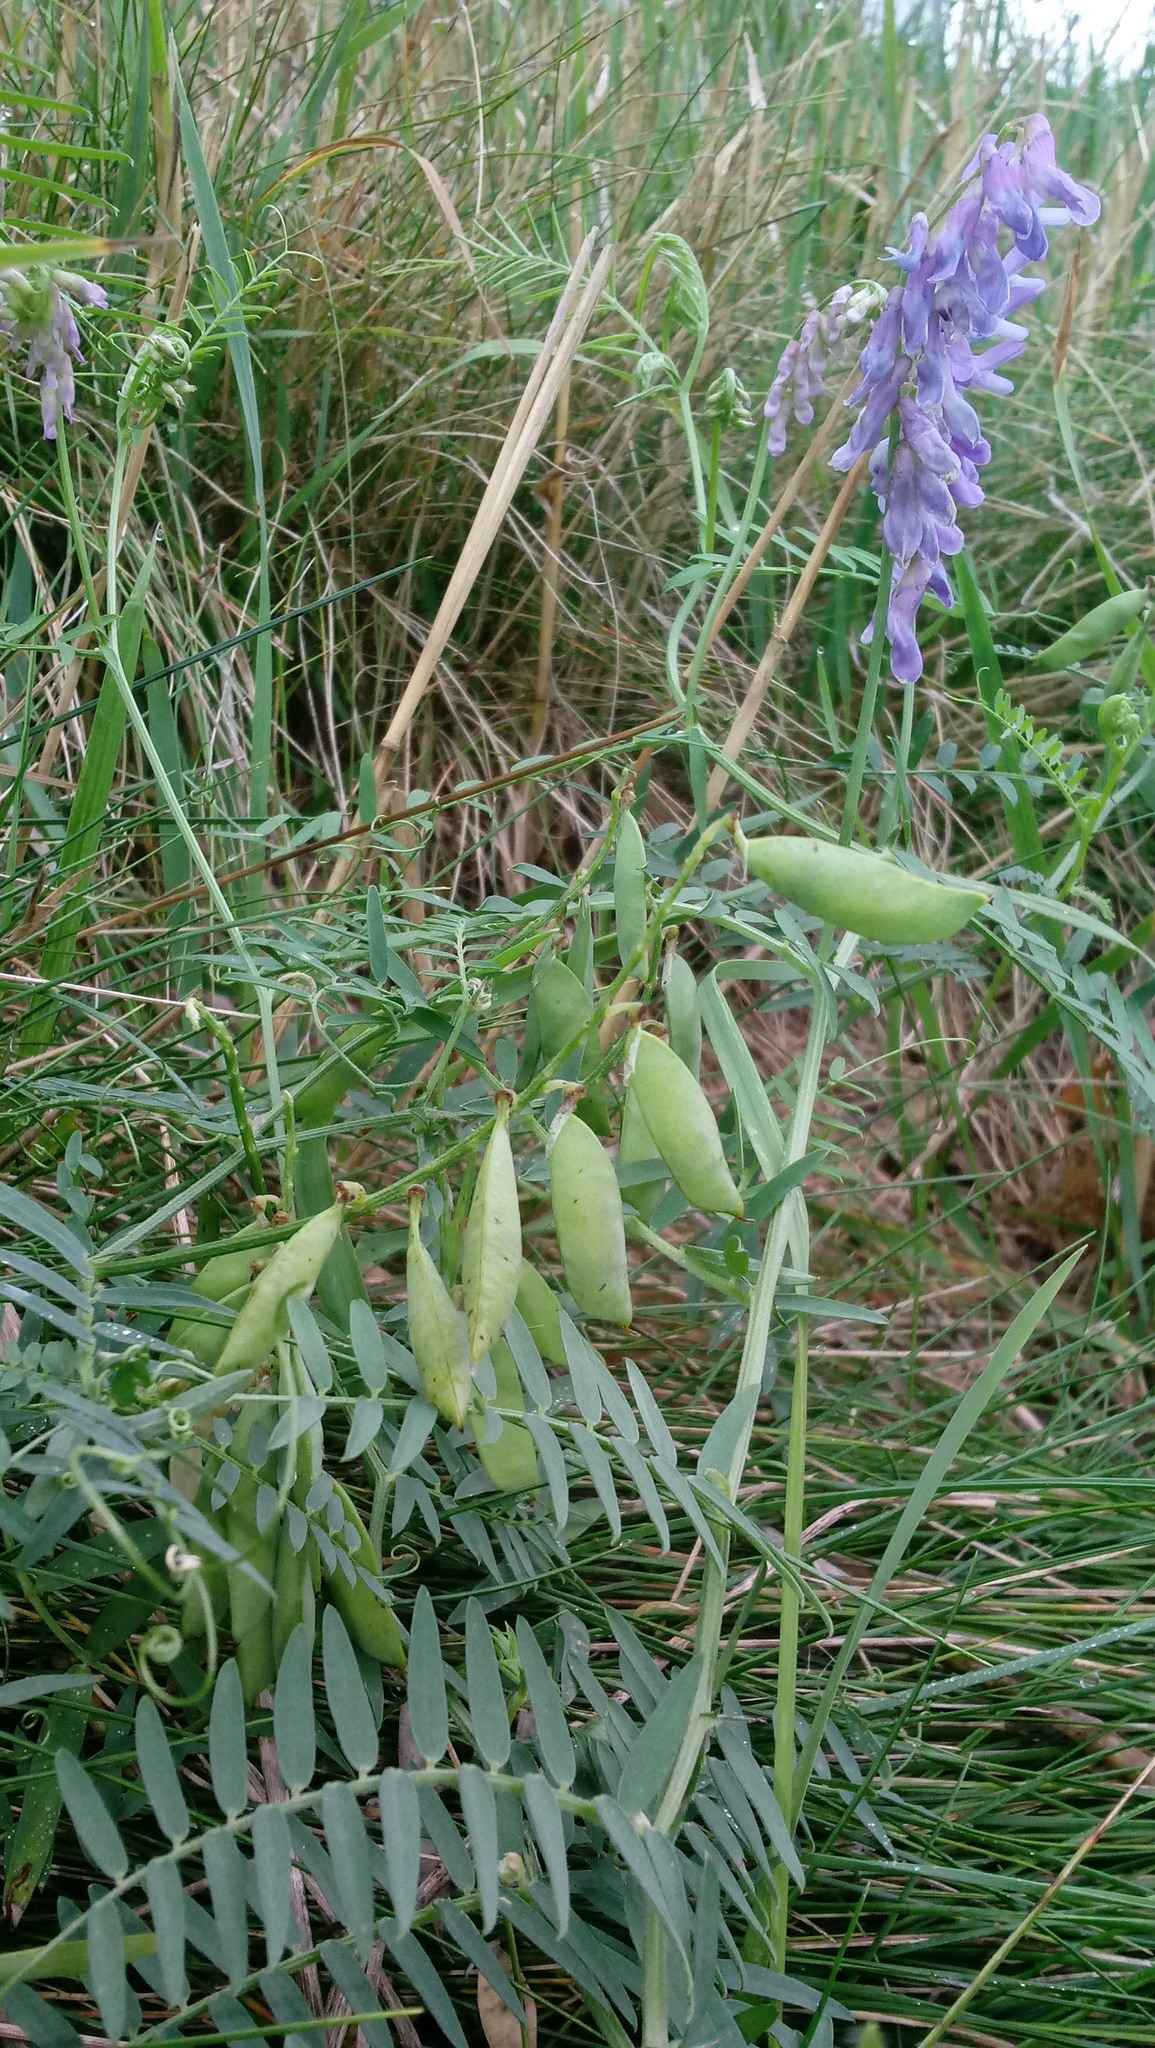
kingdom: Plantae
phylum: Tracheophyta
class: Magnoliopsida
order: Fabales
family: Fabaceae
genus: Vicia
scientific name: Vicia cracca
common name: Bird vetch
